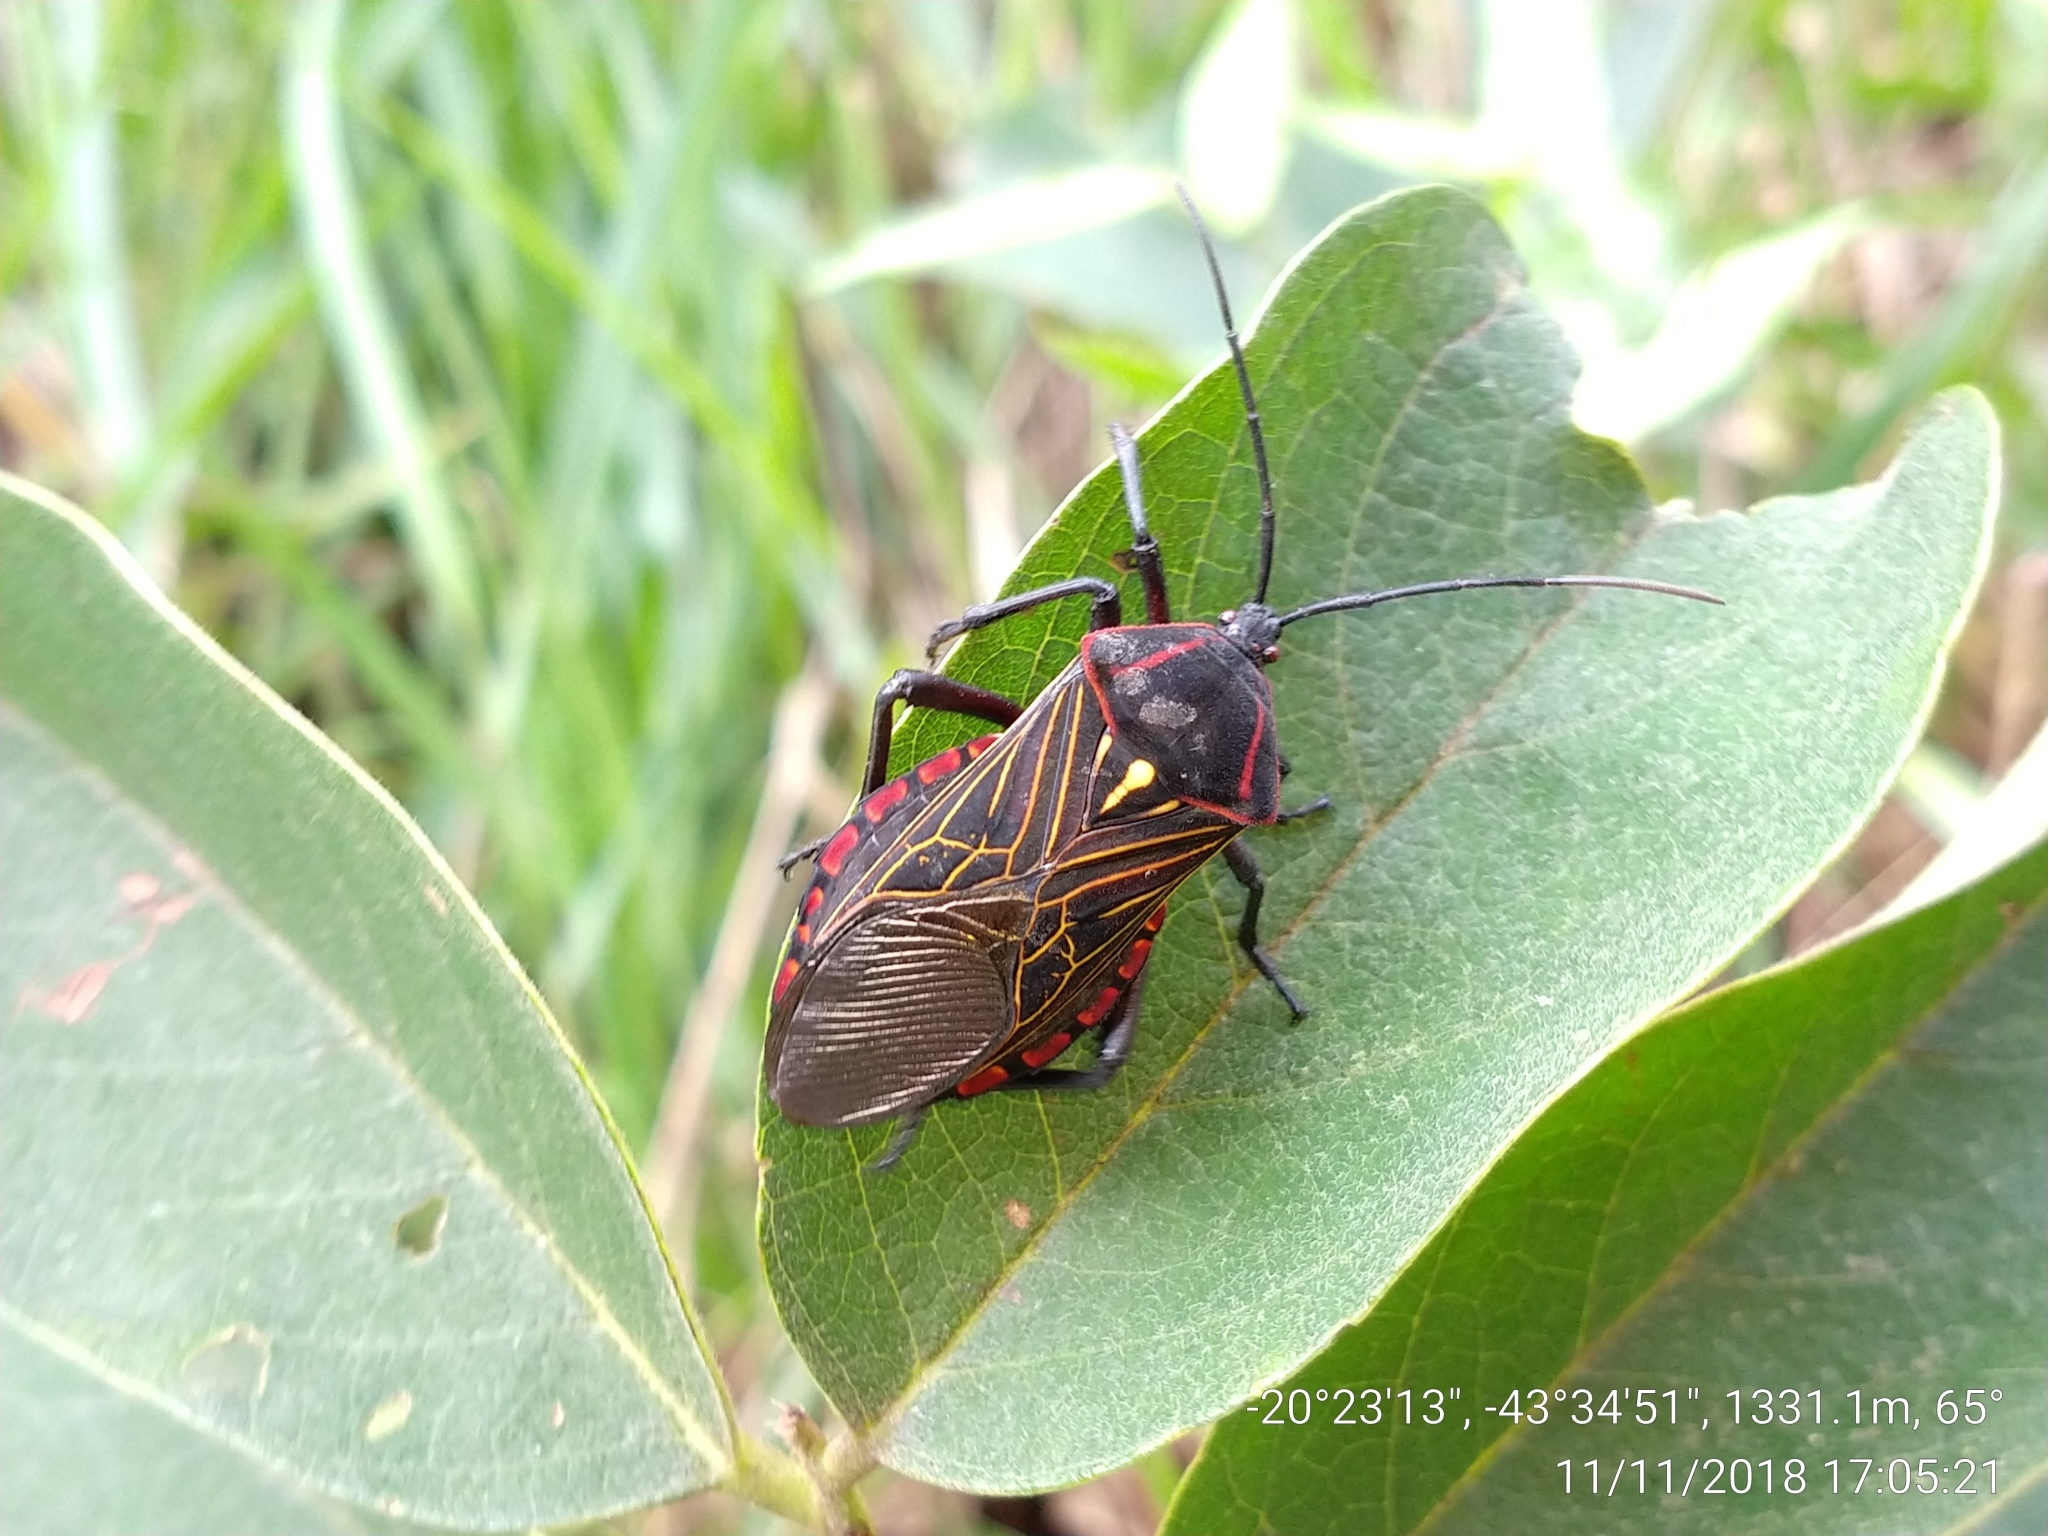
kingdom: Animalia
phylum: Arthropoda
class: Insecta
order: Hemiptera
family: Coreidae
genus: Pachylis
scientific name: Pachylis pharaonis
